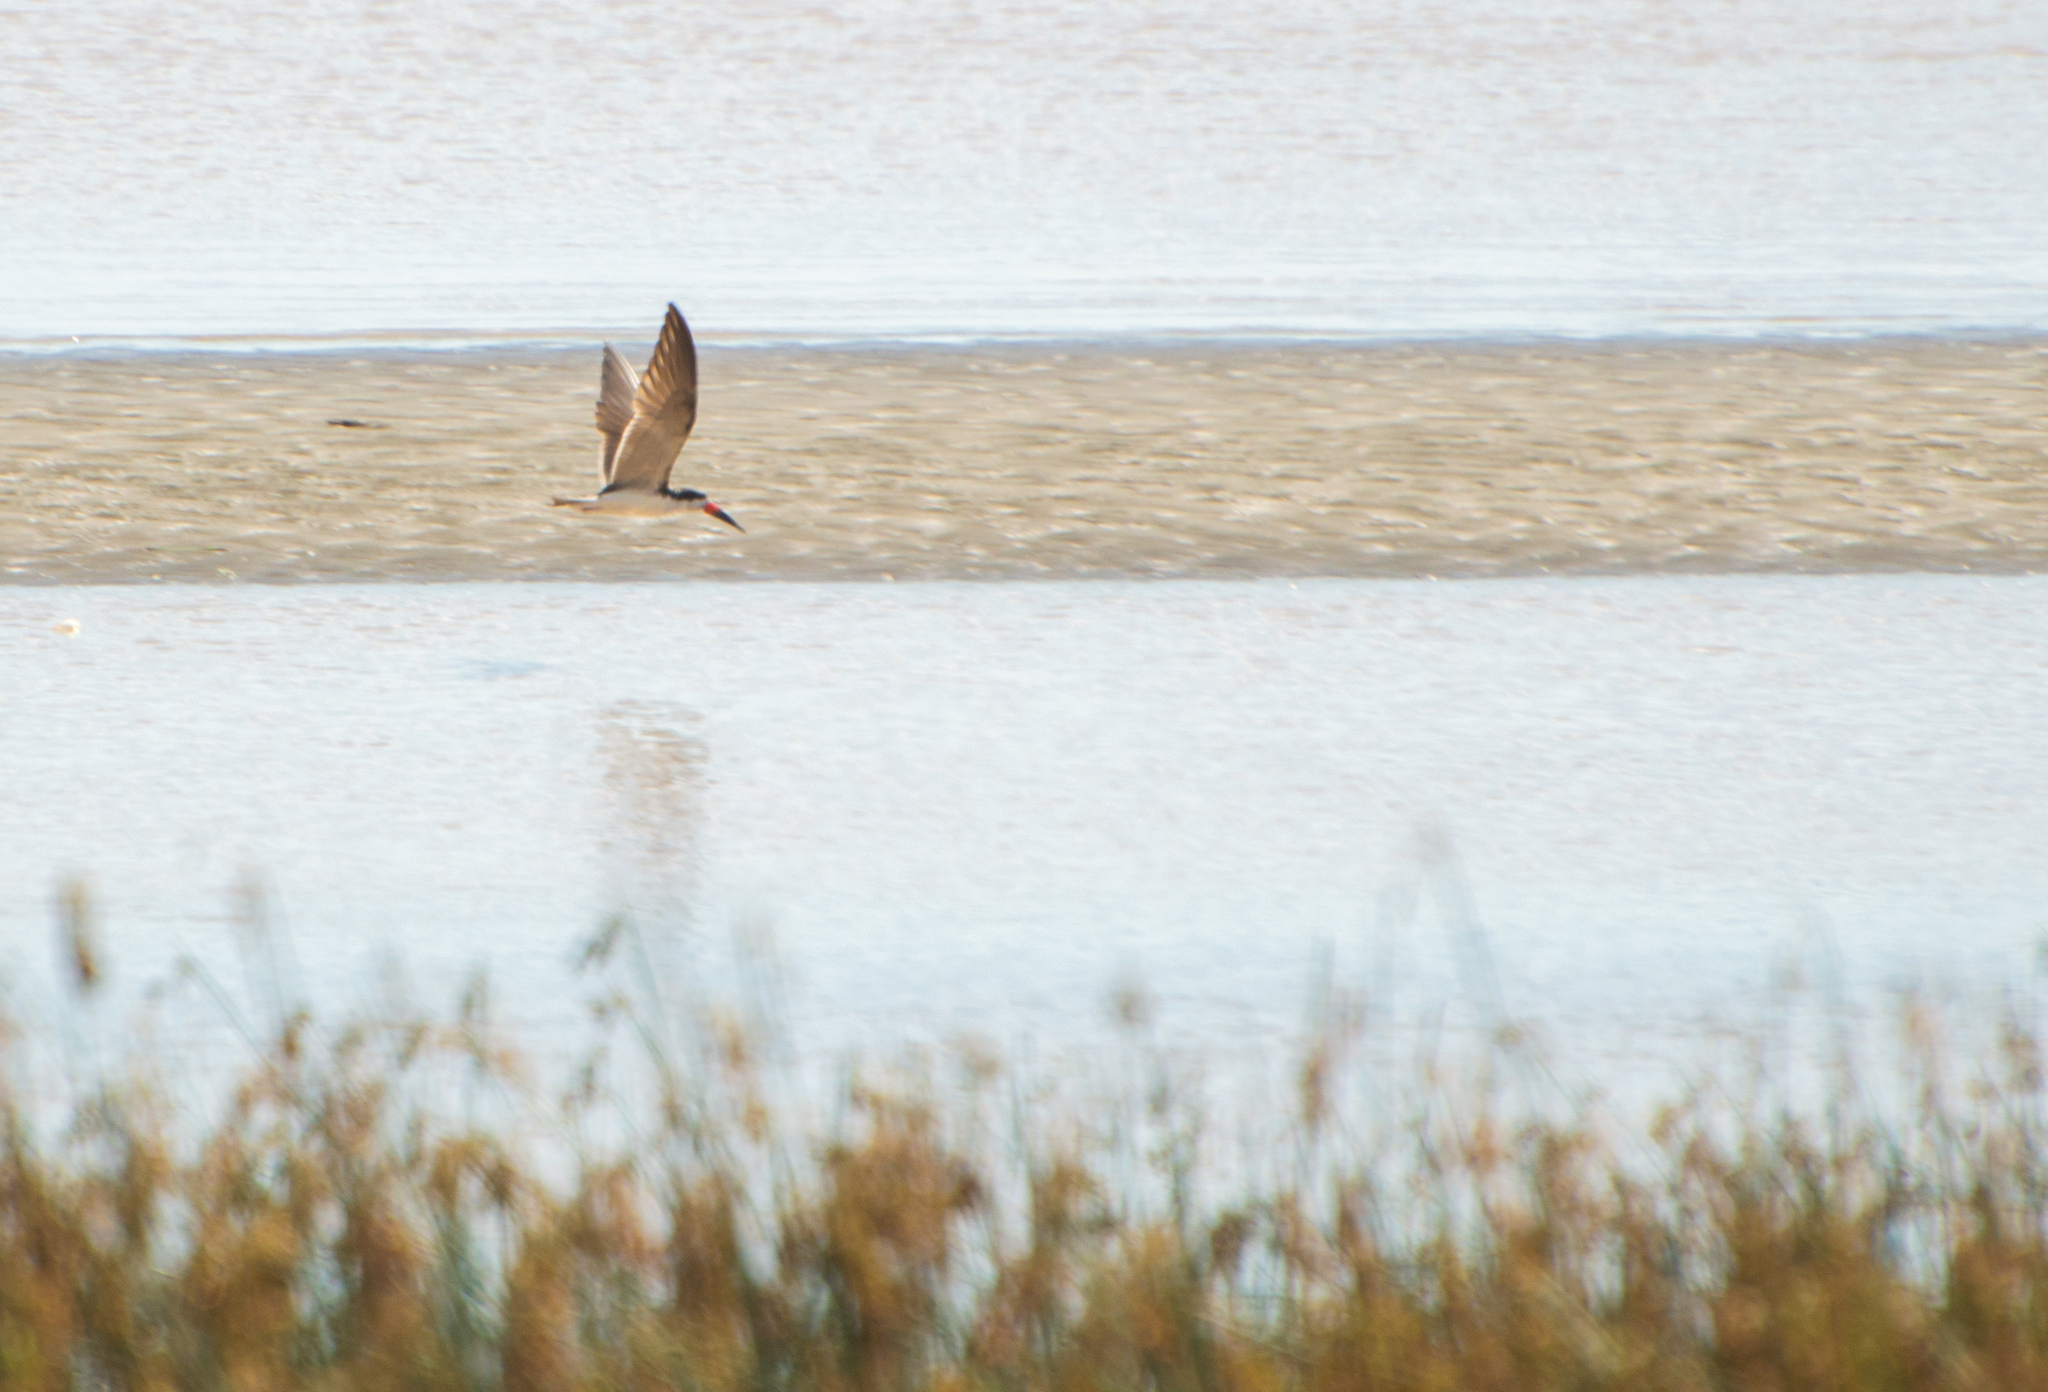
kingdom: Animalia
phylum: Chordata
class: Aves
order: Charadriiformes
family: Laridae
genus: Rynchops
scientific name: Rynchops niger
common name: Black skimmer
